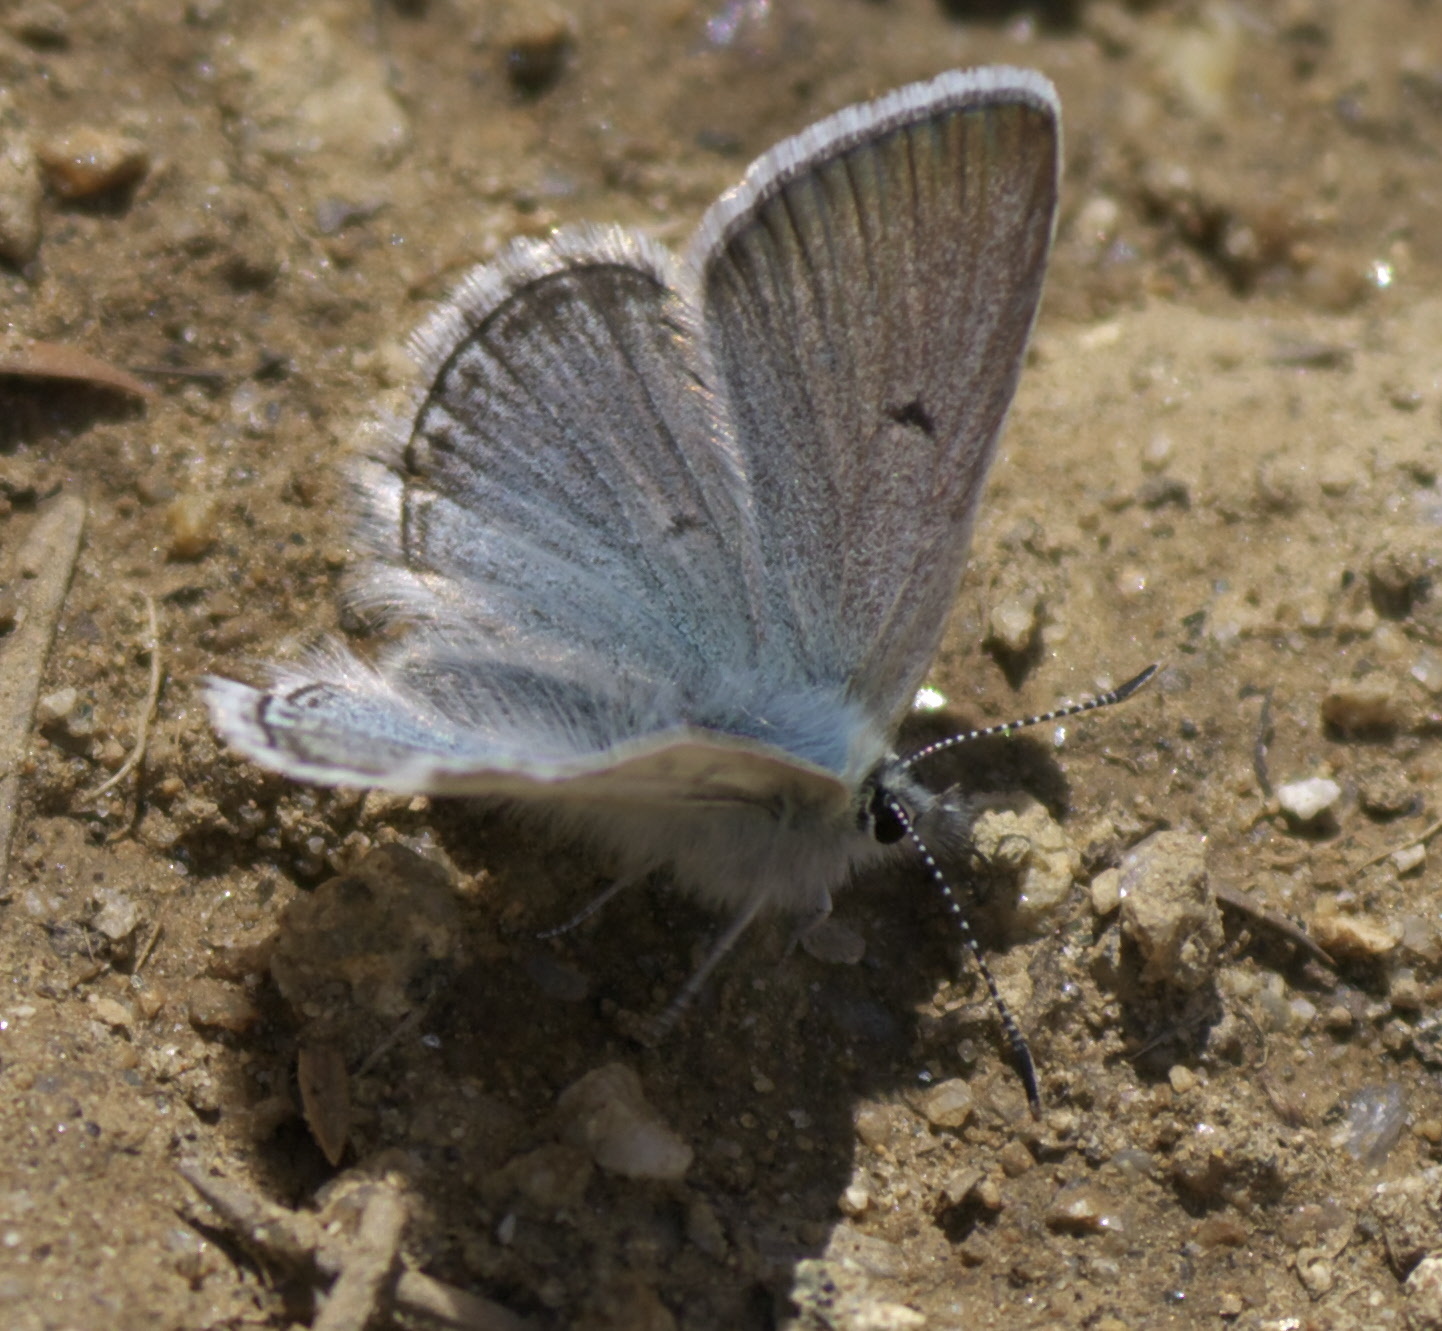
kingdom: Animalia
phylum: Arthropoda
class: Insecta
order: Lepidoptera
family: Lycaenidae
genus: Agriades
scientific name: Agriades glandon
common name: Glandon blue
